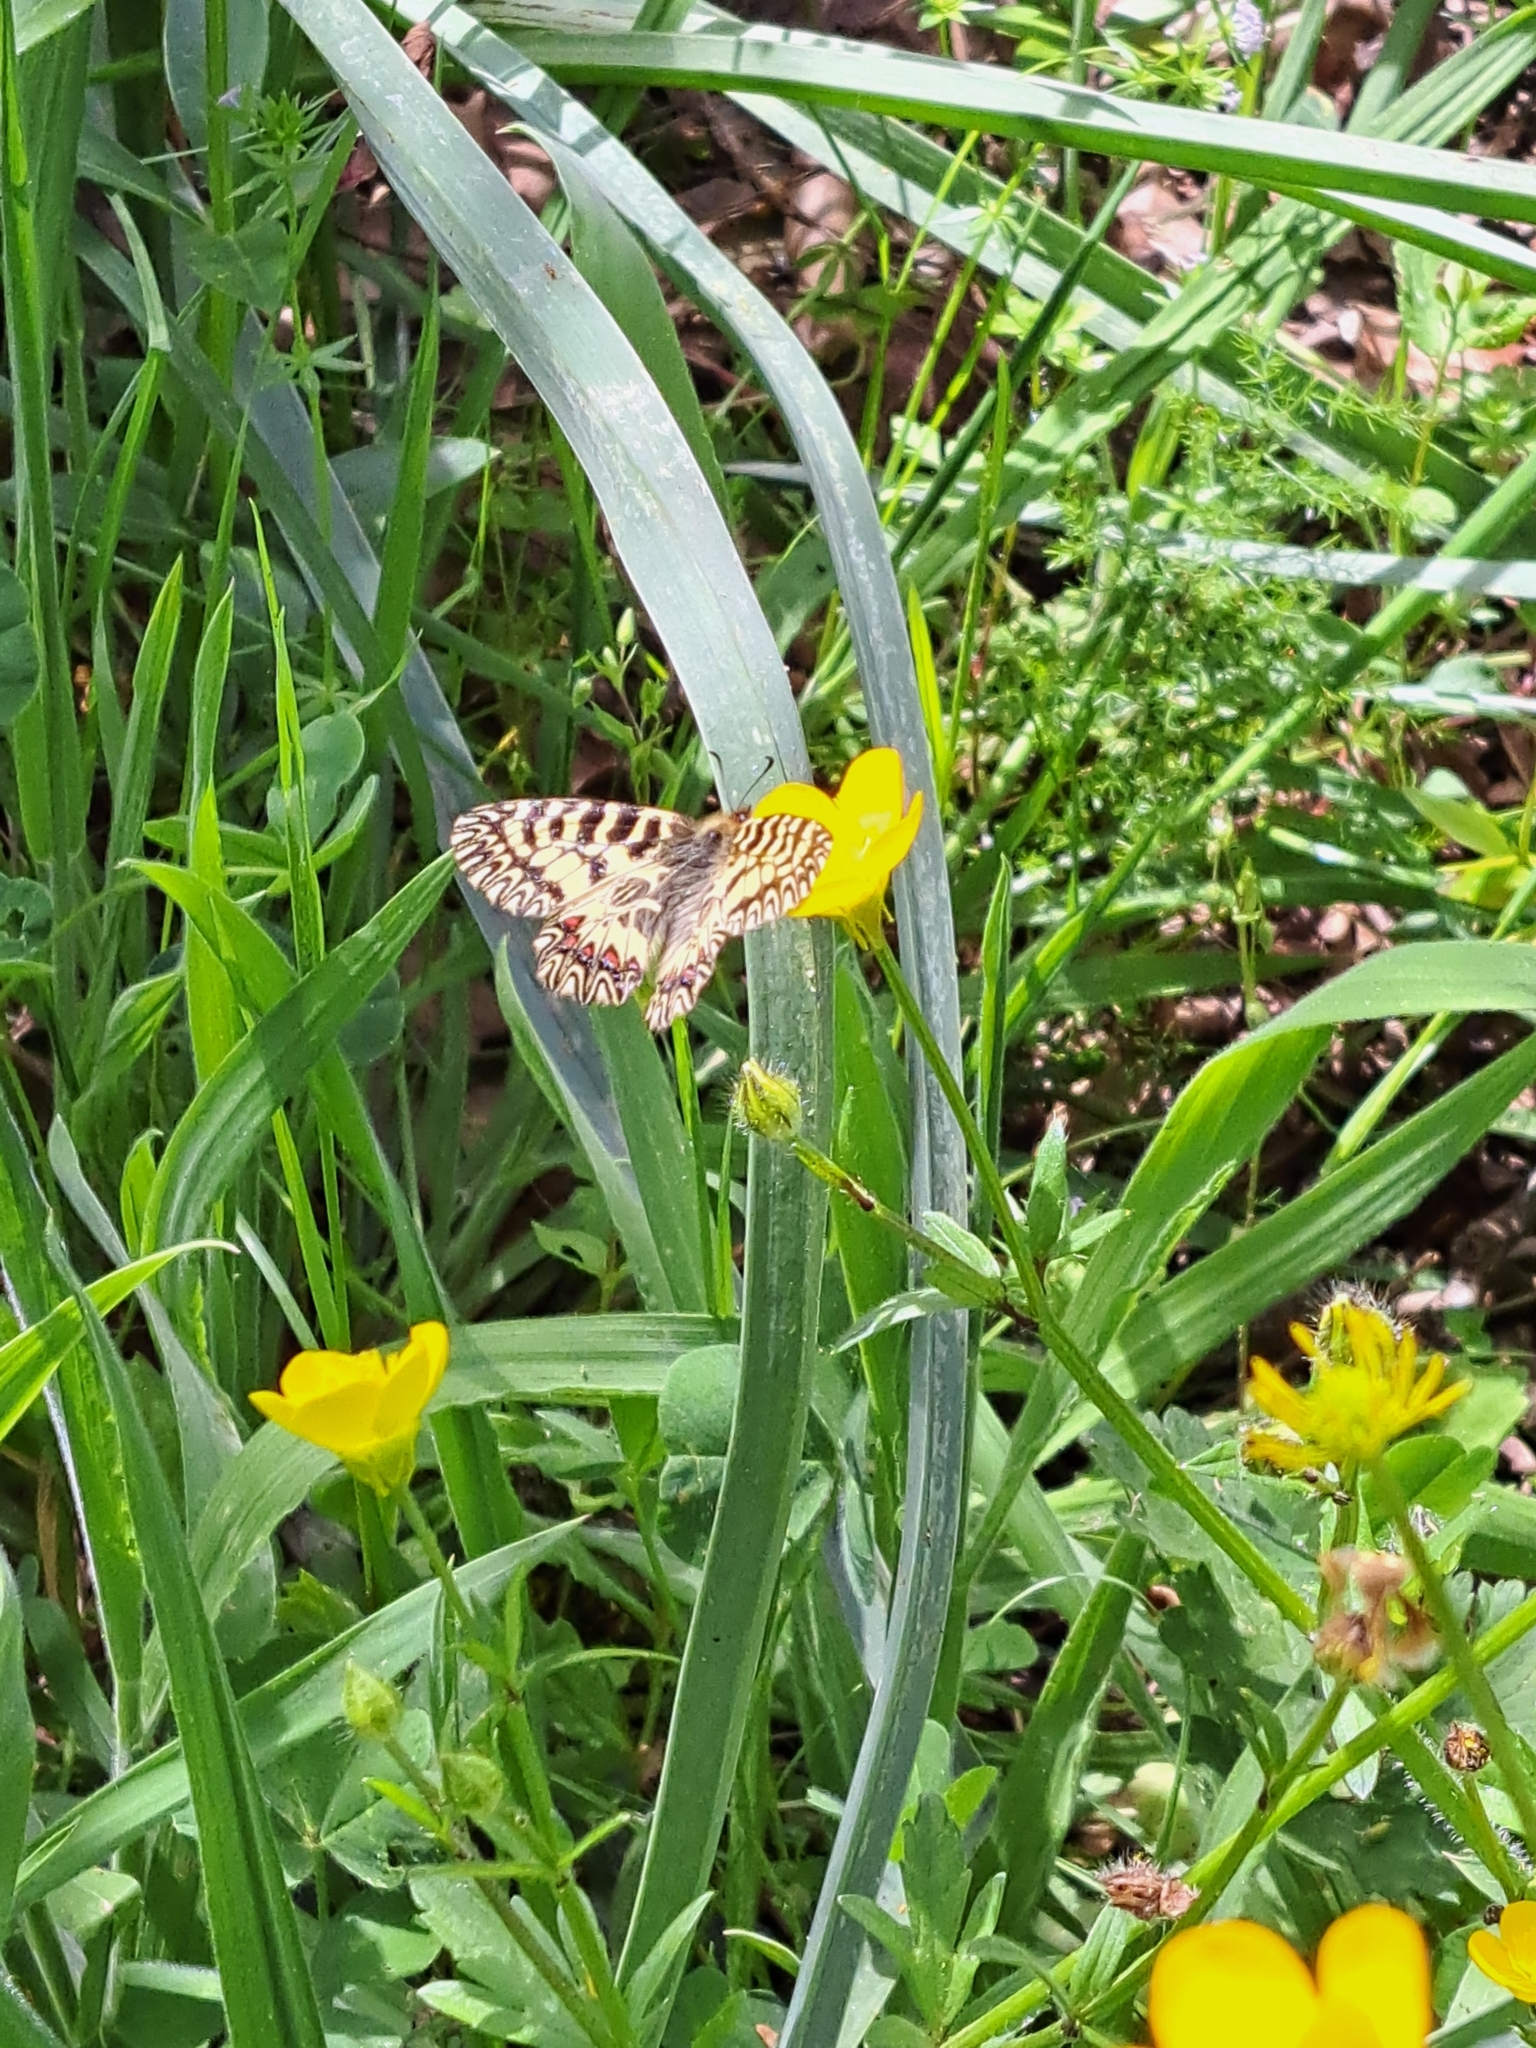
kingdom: Animalia
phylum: Arthropoda
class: Insecta
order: Lepidoptera
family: Papilionidae
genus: Zerynthia
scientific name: Zerynthia cassandra
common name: Italian festoon
